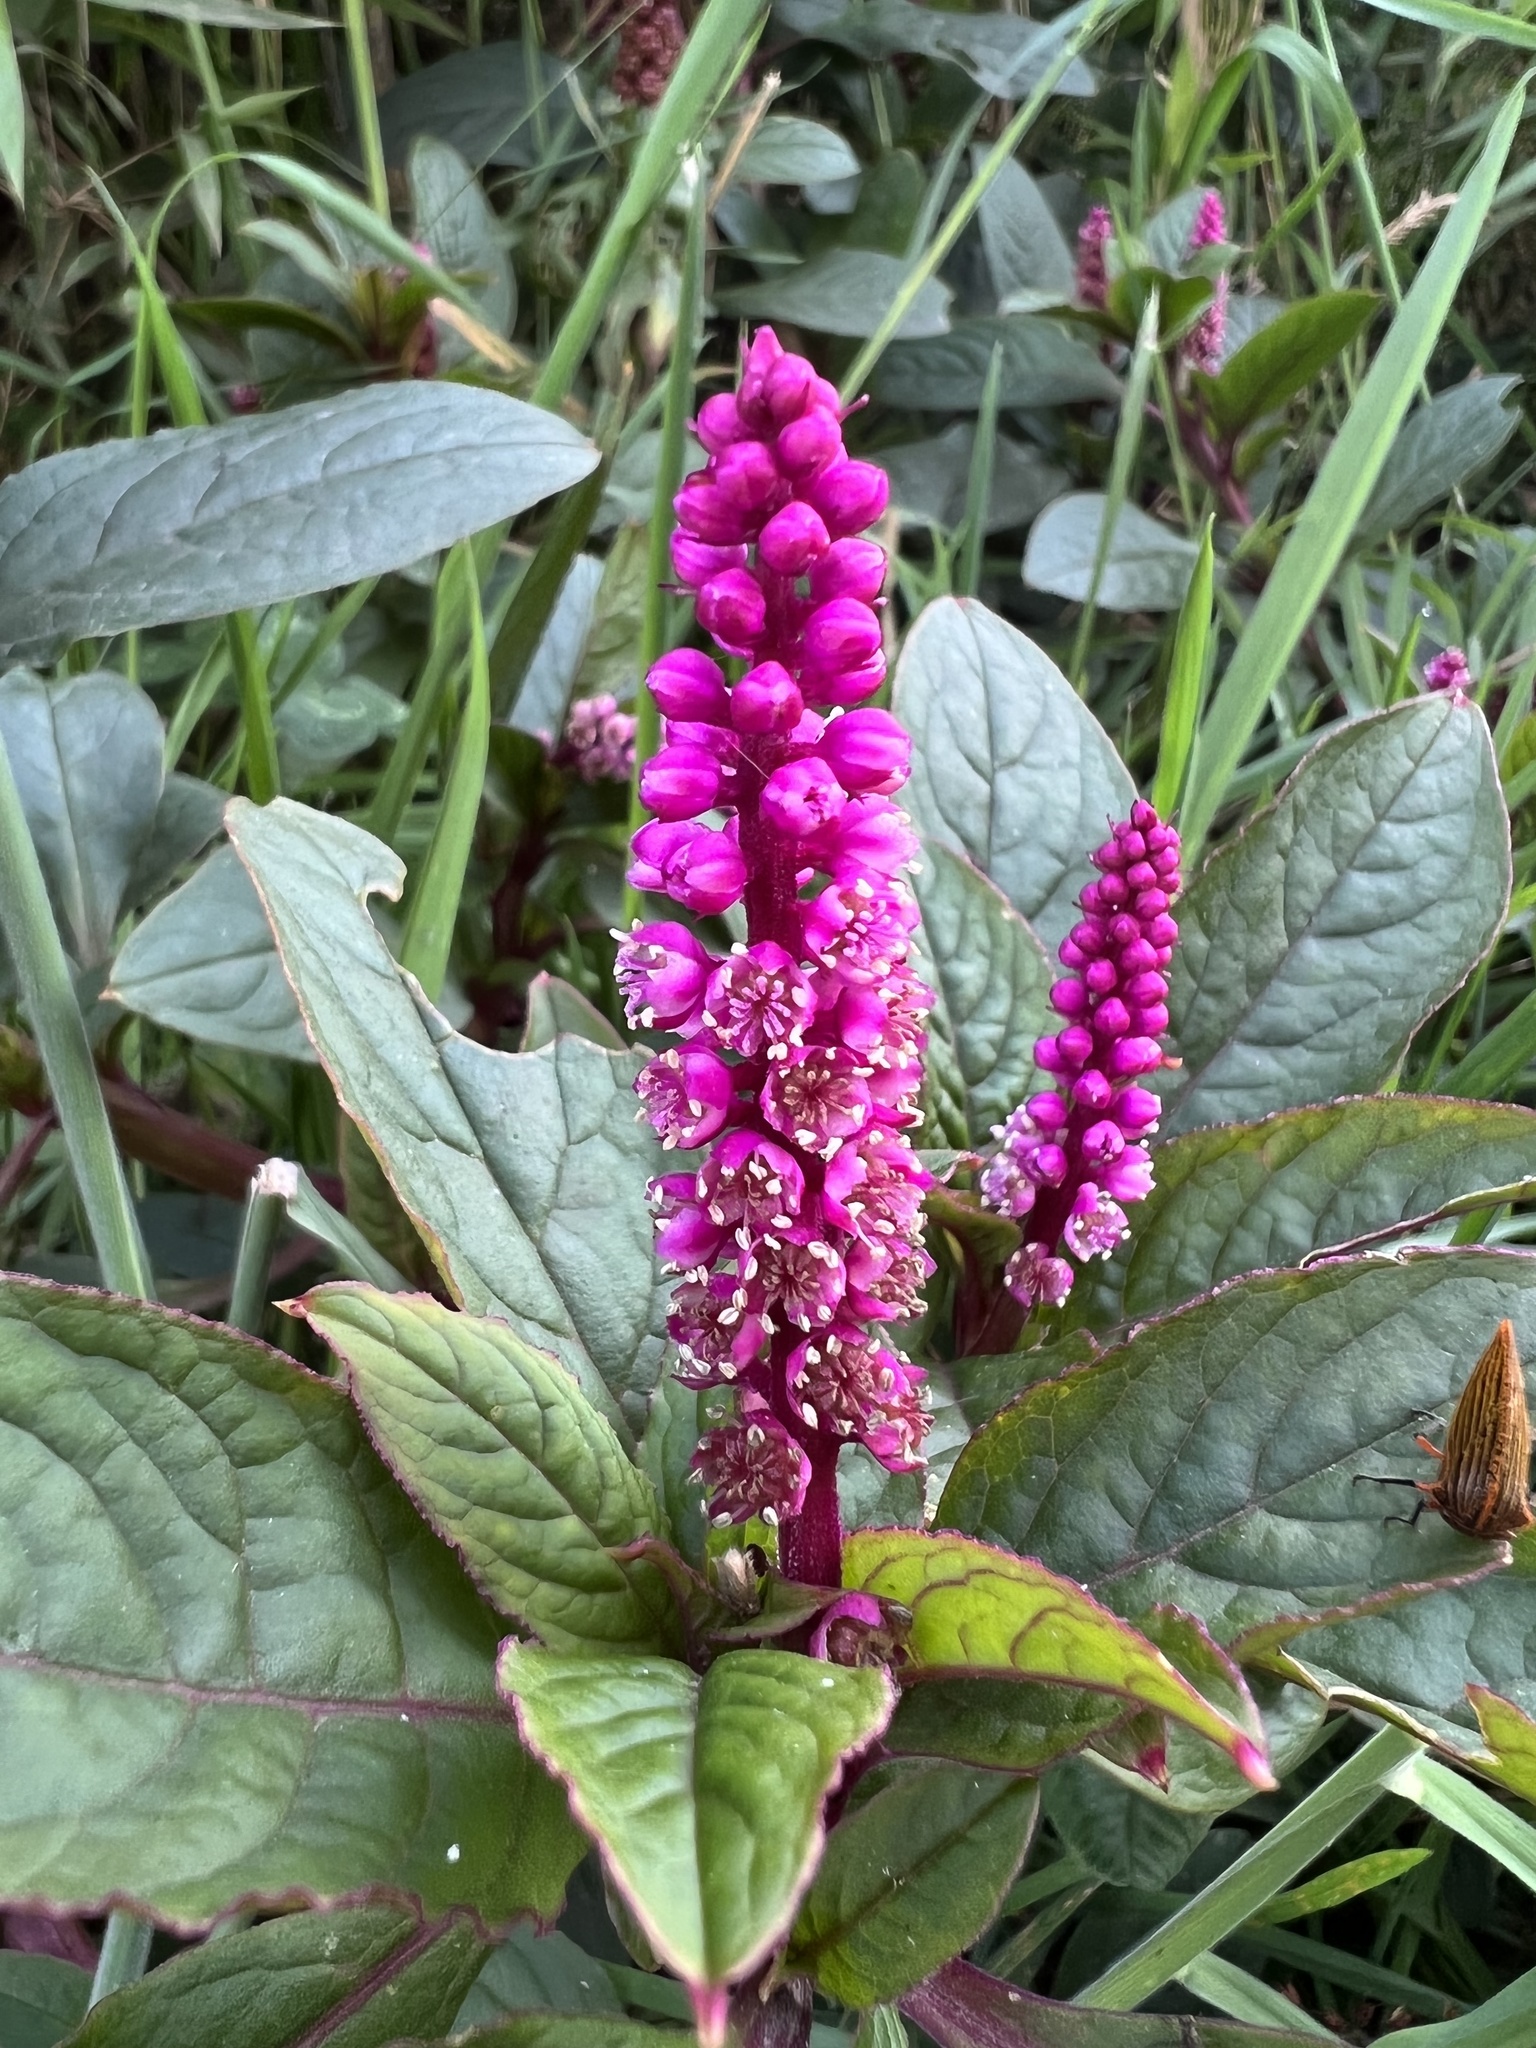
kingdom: Plantae
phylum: Tracheophyta
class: Magnoliopsida
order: Caryophyllales
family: Phytolaccaceae
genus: Phytolacca
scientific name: Phytolacca bogotensis
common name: Southern pokeweed
